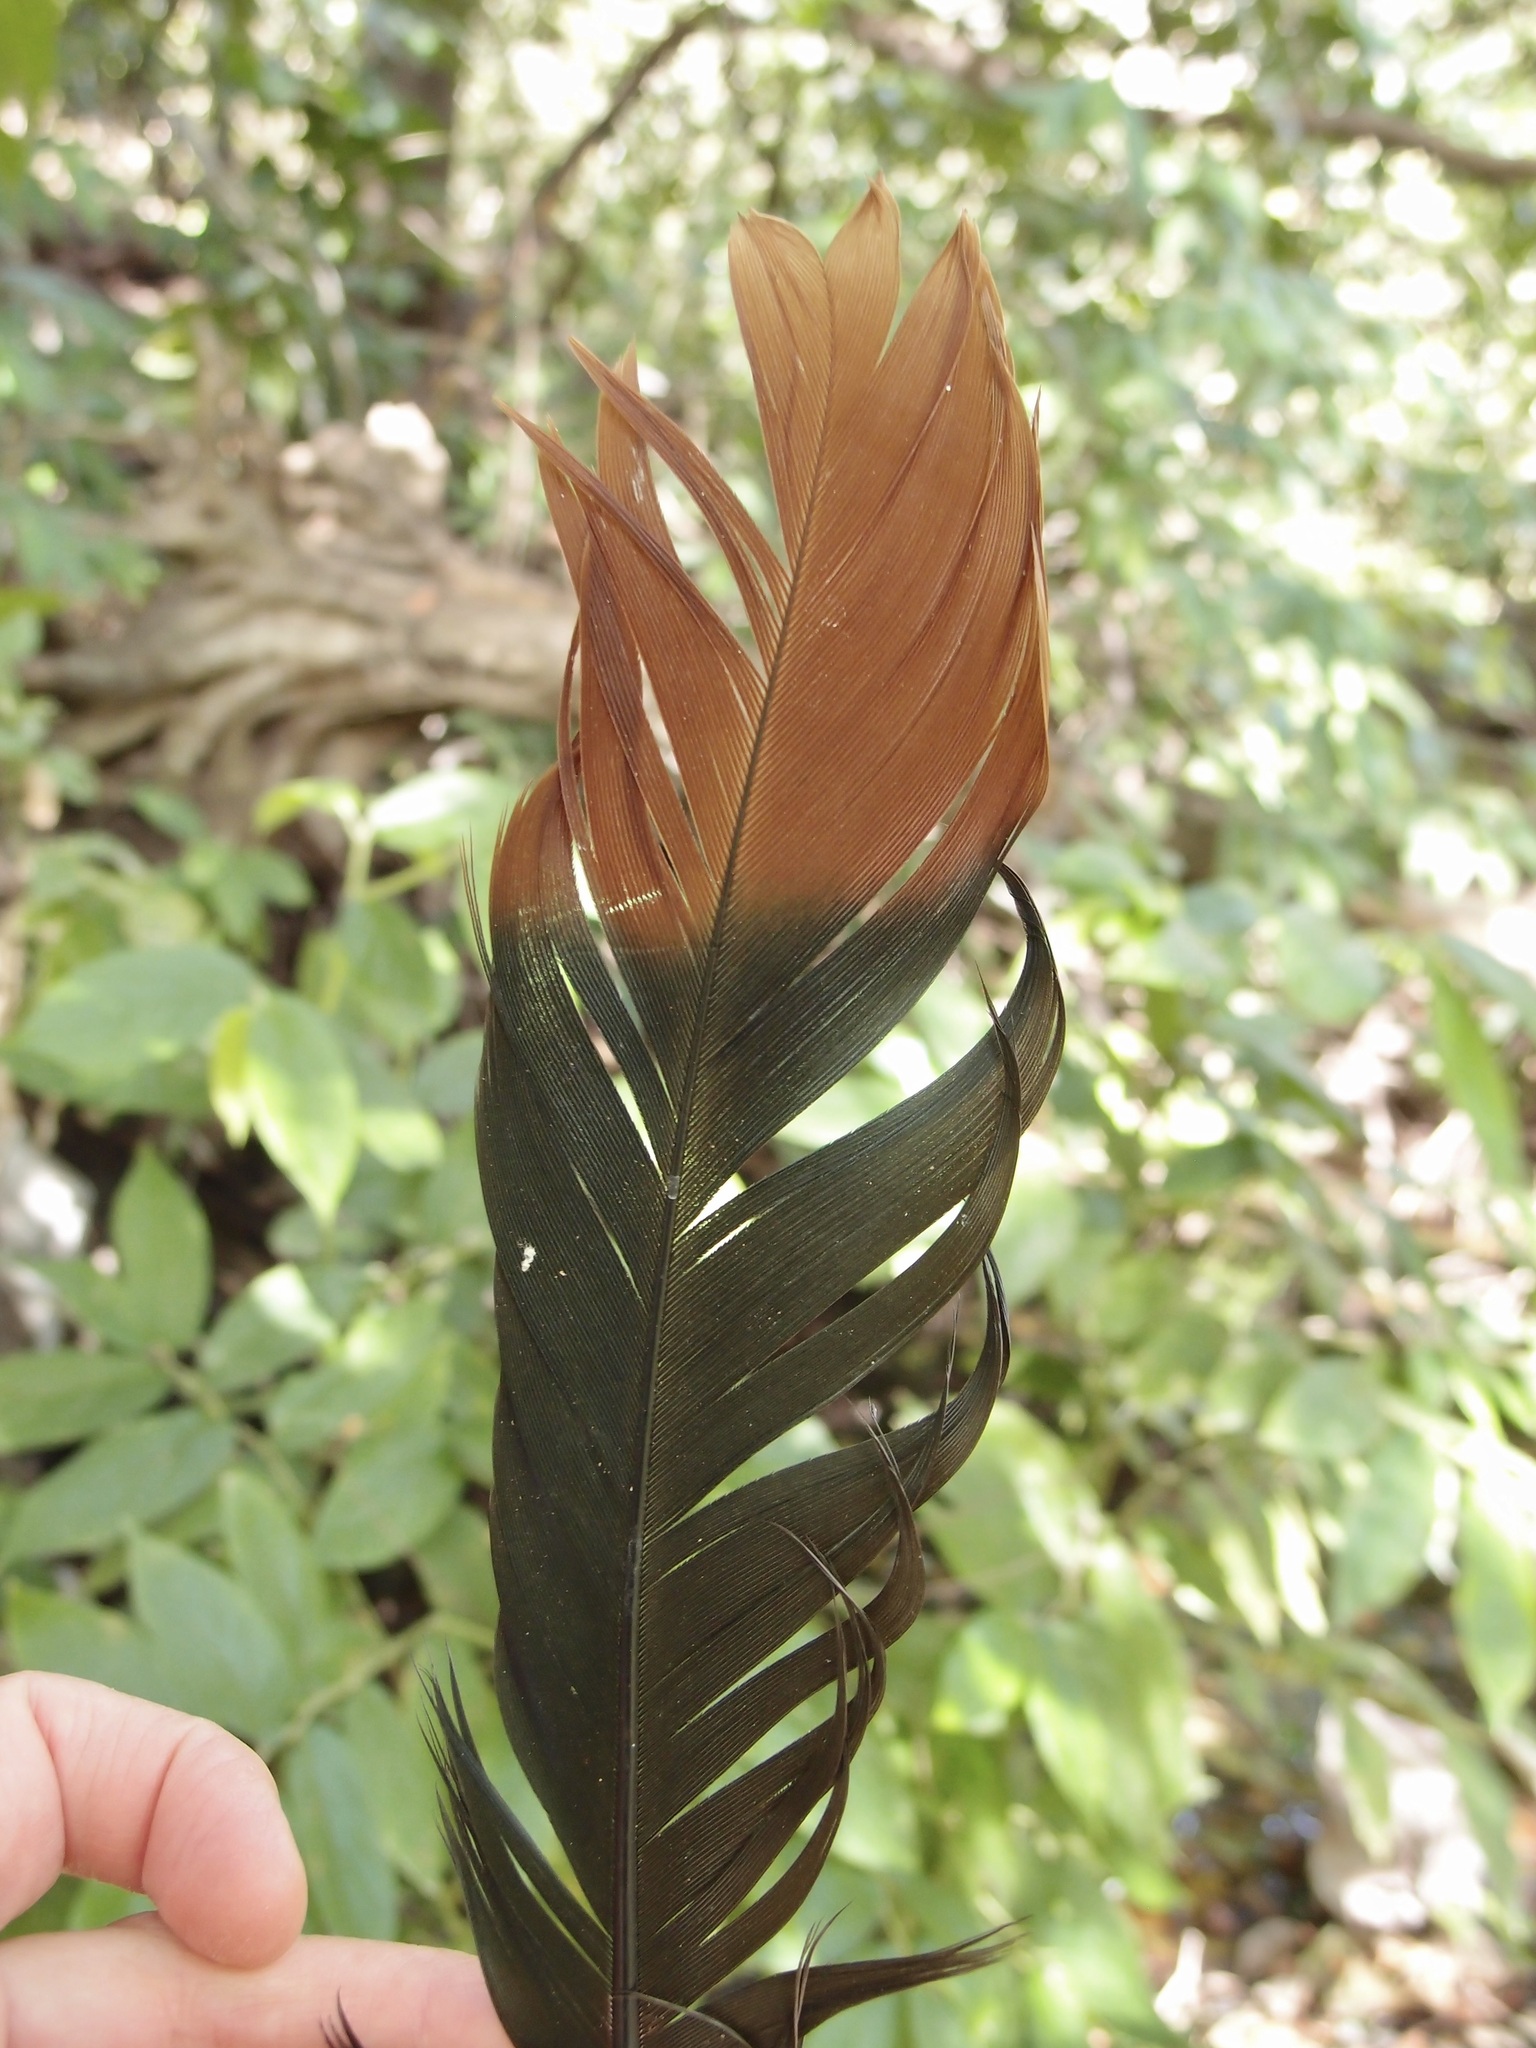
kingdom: Animalia
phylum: Chordata
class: Aves
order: Galliformes
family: Cracidae
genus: Ortalis
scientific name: Ortalis wagleri
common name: Rufous-bellied chachalaca
